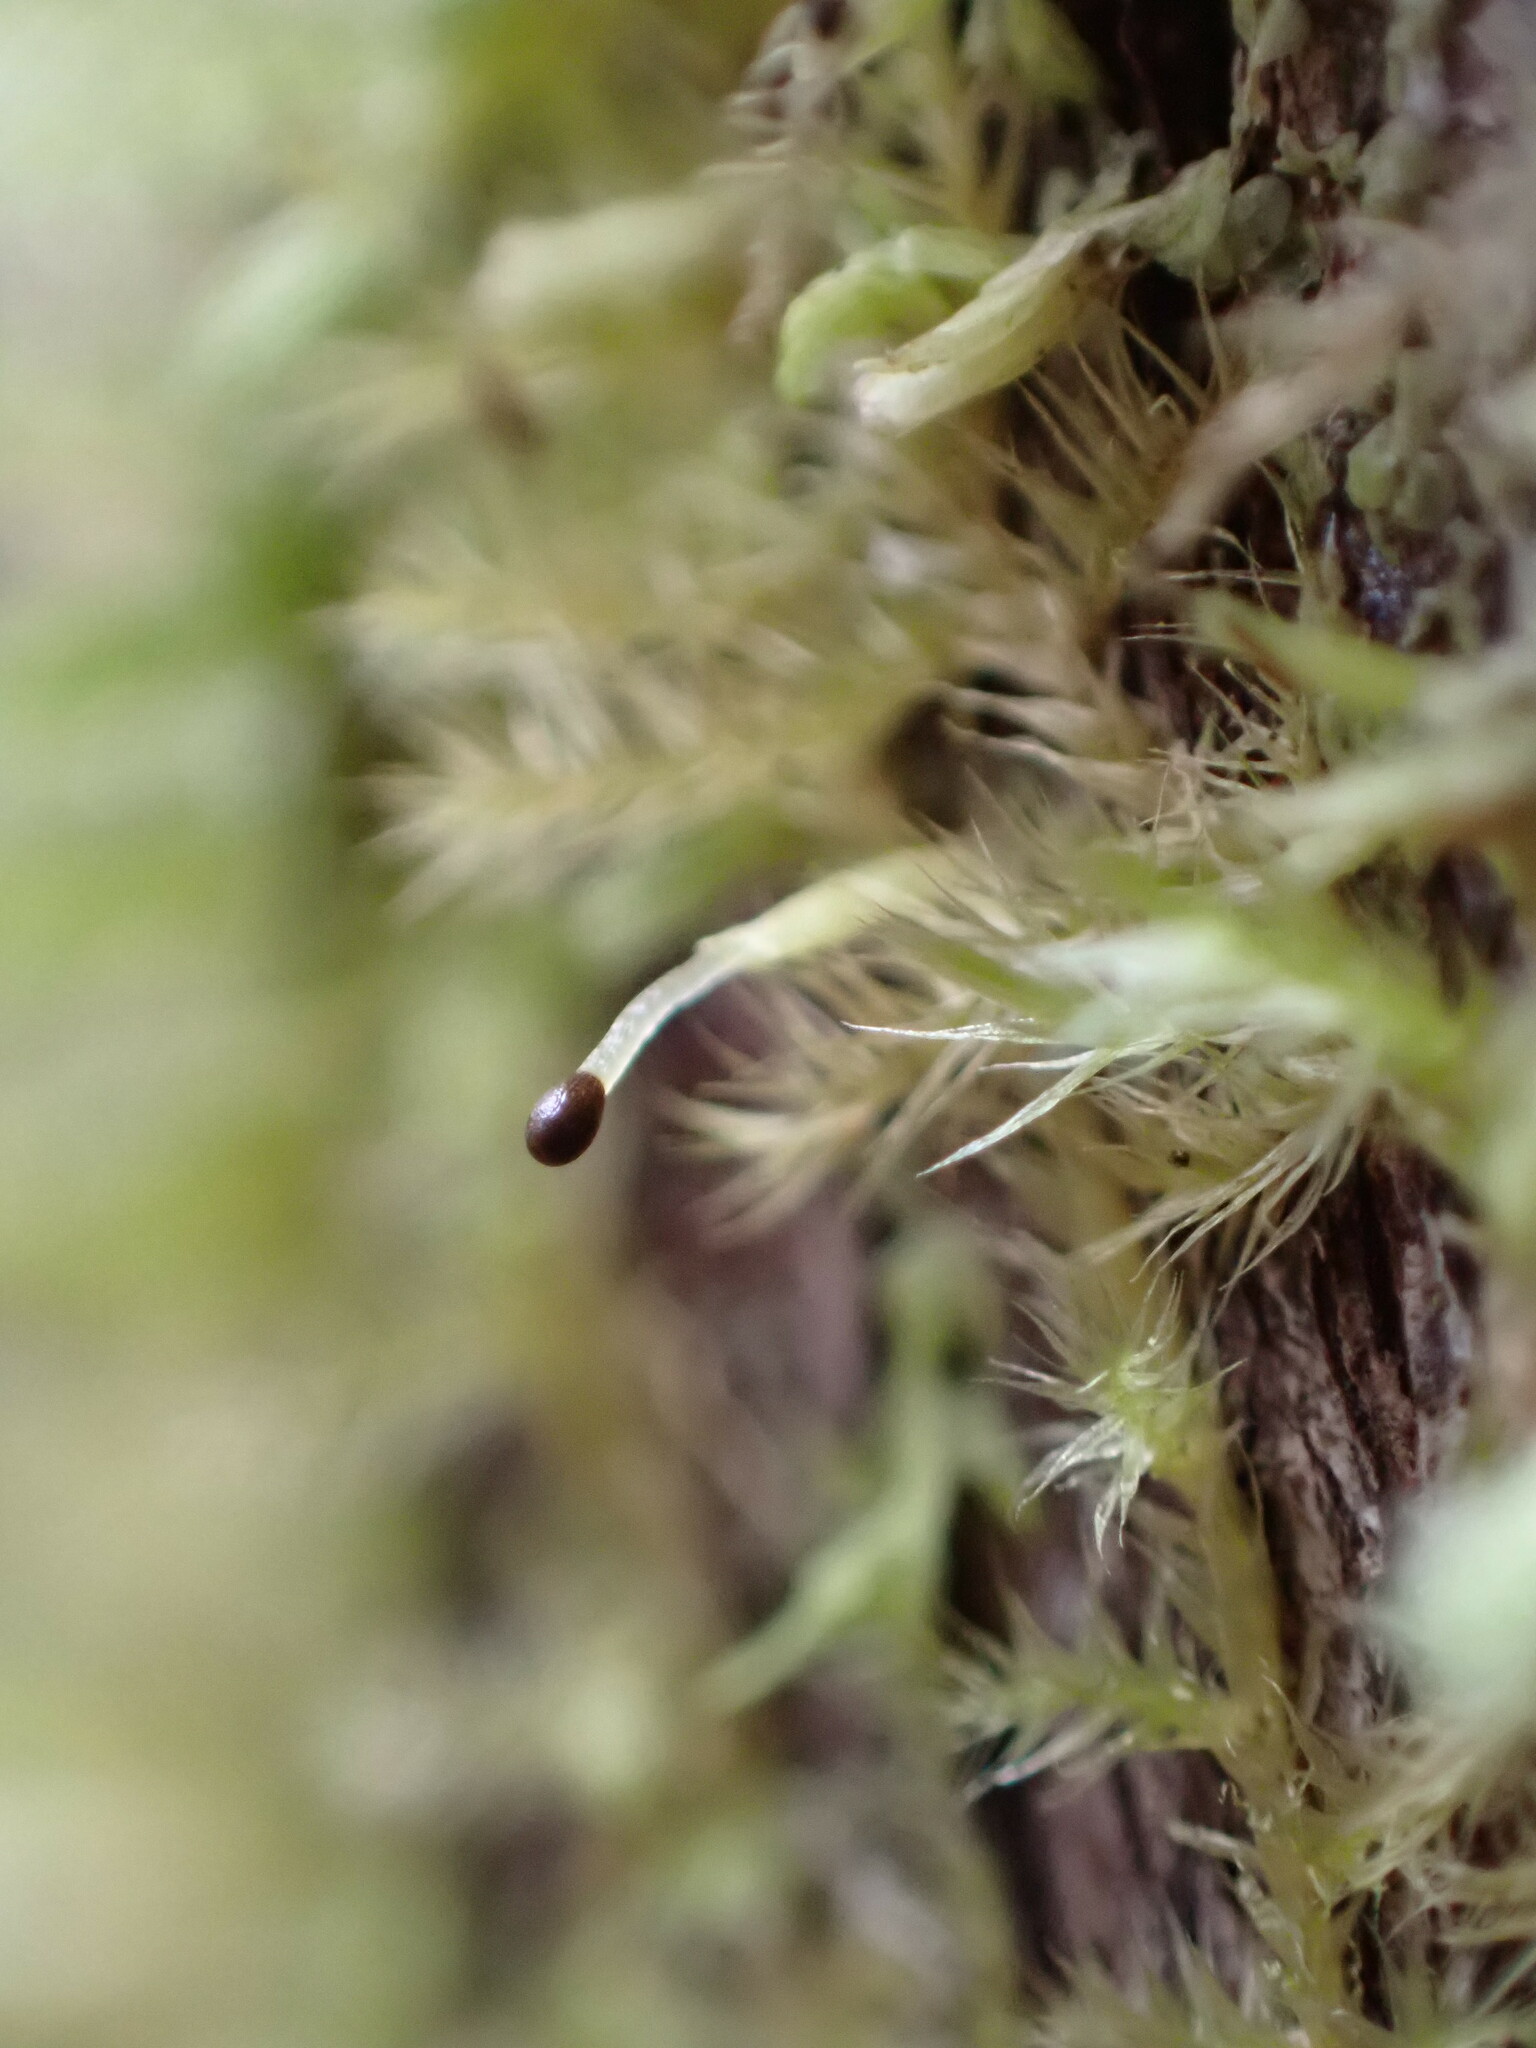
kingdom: Plantae
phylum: Marchantiophyta
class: Jungermanniopsida
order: Porellales
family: Radulaceae
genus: Radula
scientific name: Radula complanata
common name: Flat-leaved scalewort
